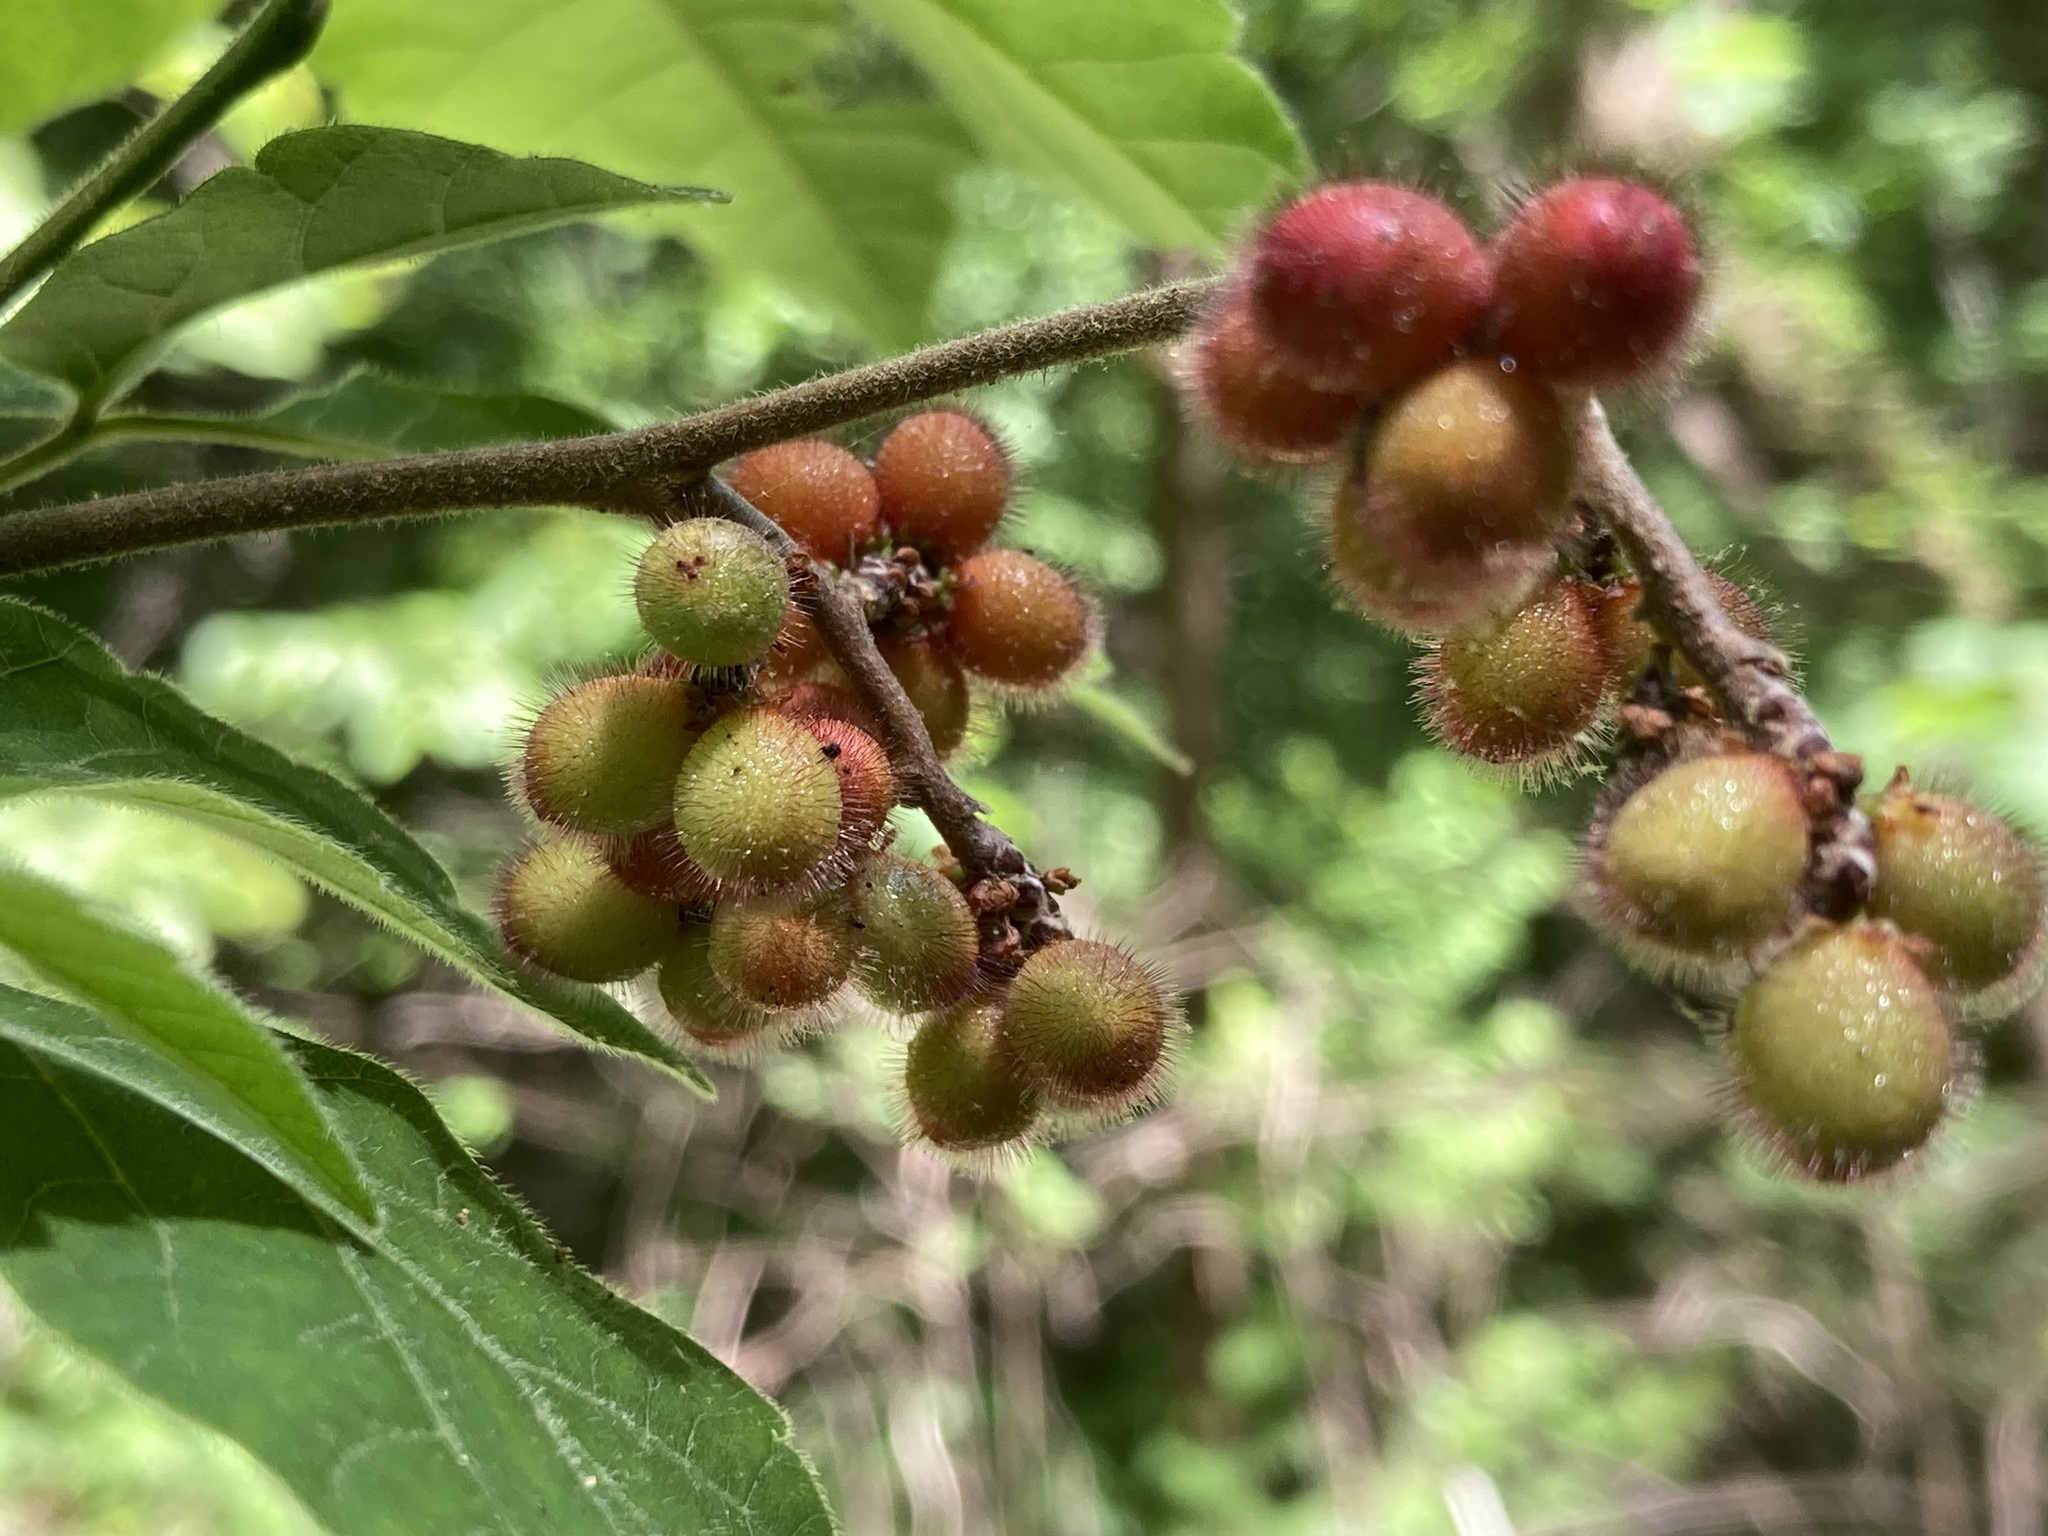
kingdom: Plantae
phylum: Tracheophyta
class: Magnoliopsida
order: Sapindales
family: Anacardiaceae
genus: Rhus
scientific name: Rhus aromatica
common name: Aromatic sumac
